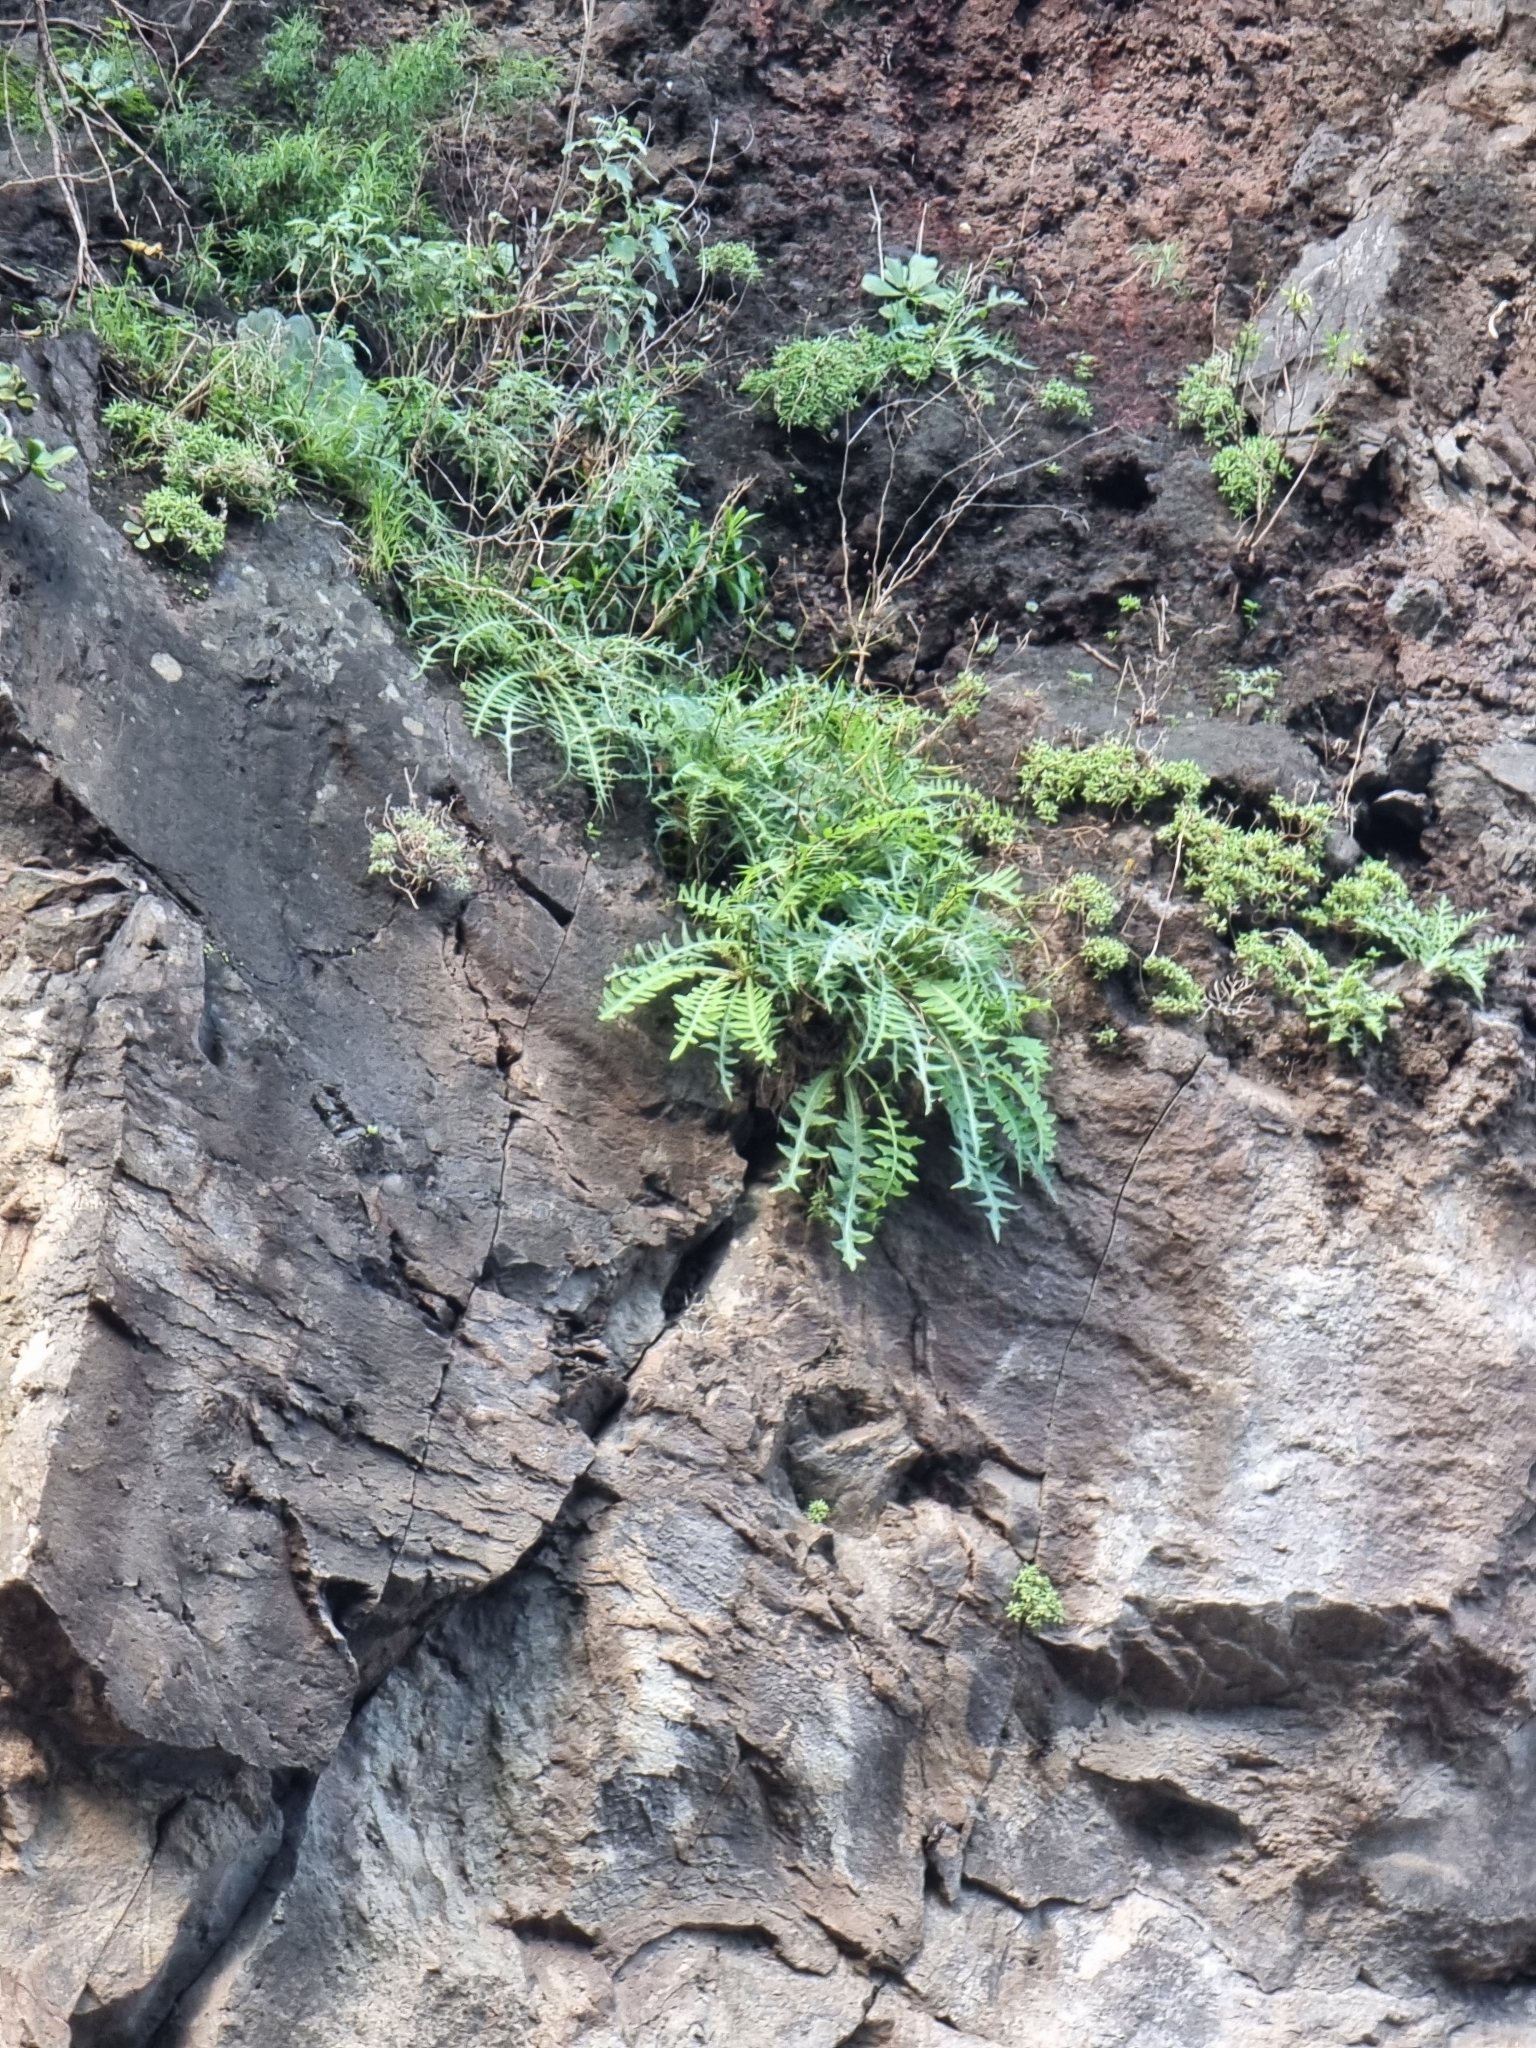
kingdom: Plantae
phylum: Tracheophyta
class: Magnoliopsida
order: Asterales
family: Asteraceae
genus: Sonchus
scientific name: Sonchus ustulatus
